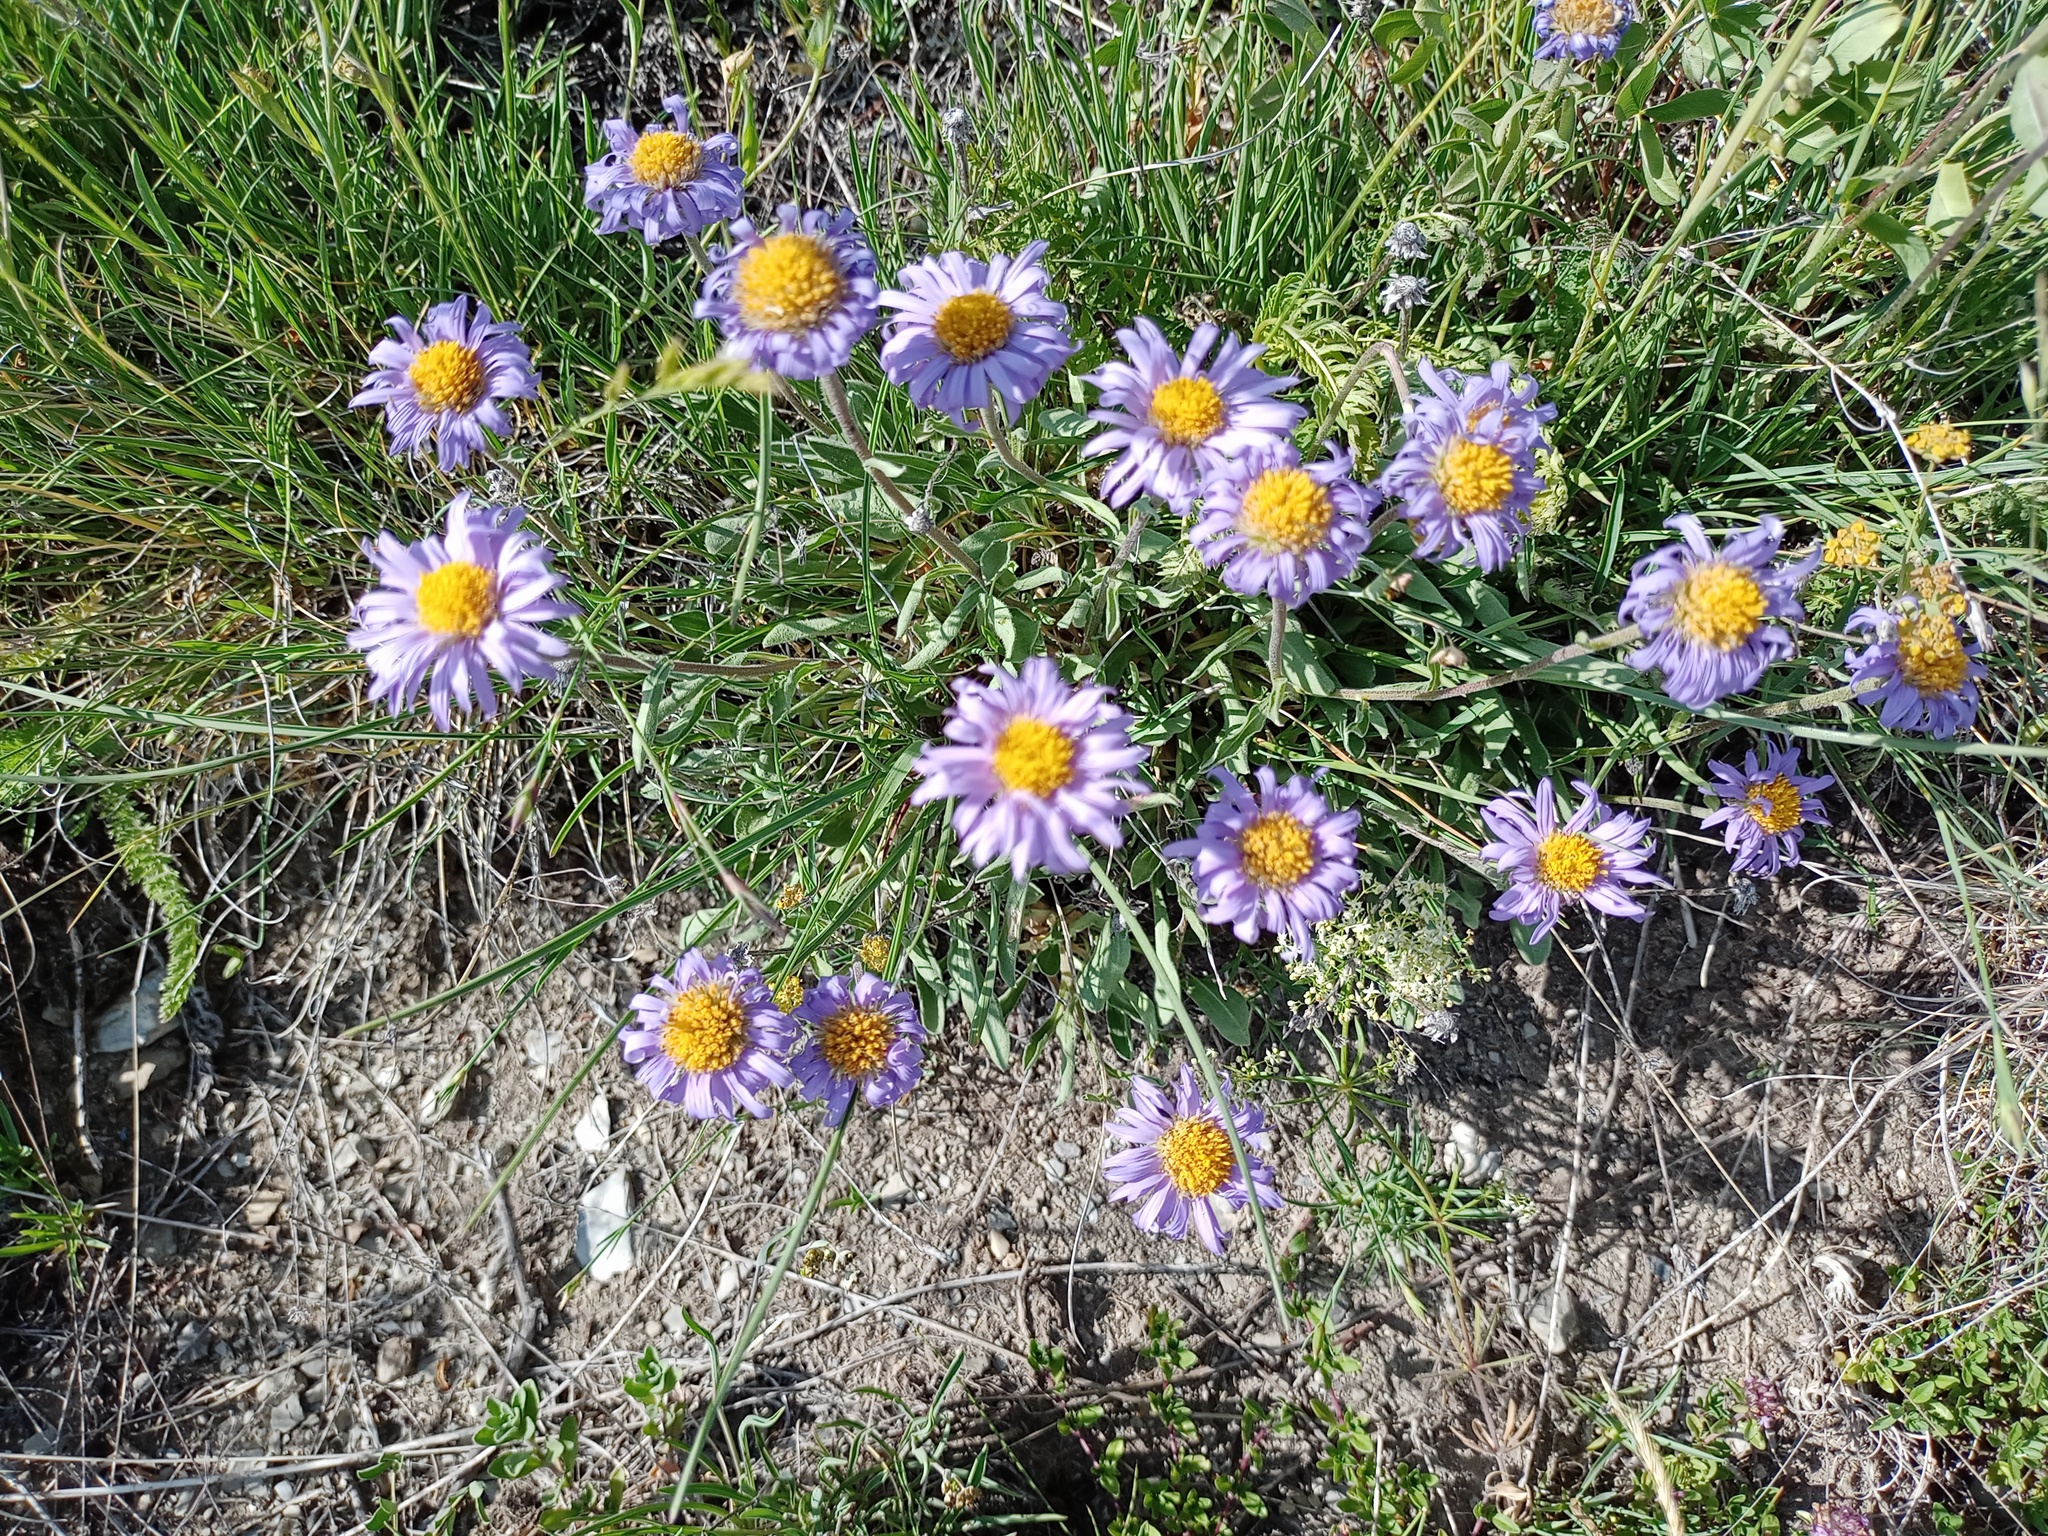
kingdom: Plantae
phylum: Tracheophyta
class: Magnoliopsida
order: Asterales
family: Asteraceae
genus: Aster
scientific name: Aster alpinus
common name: Alpine aster
